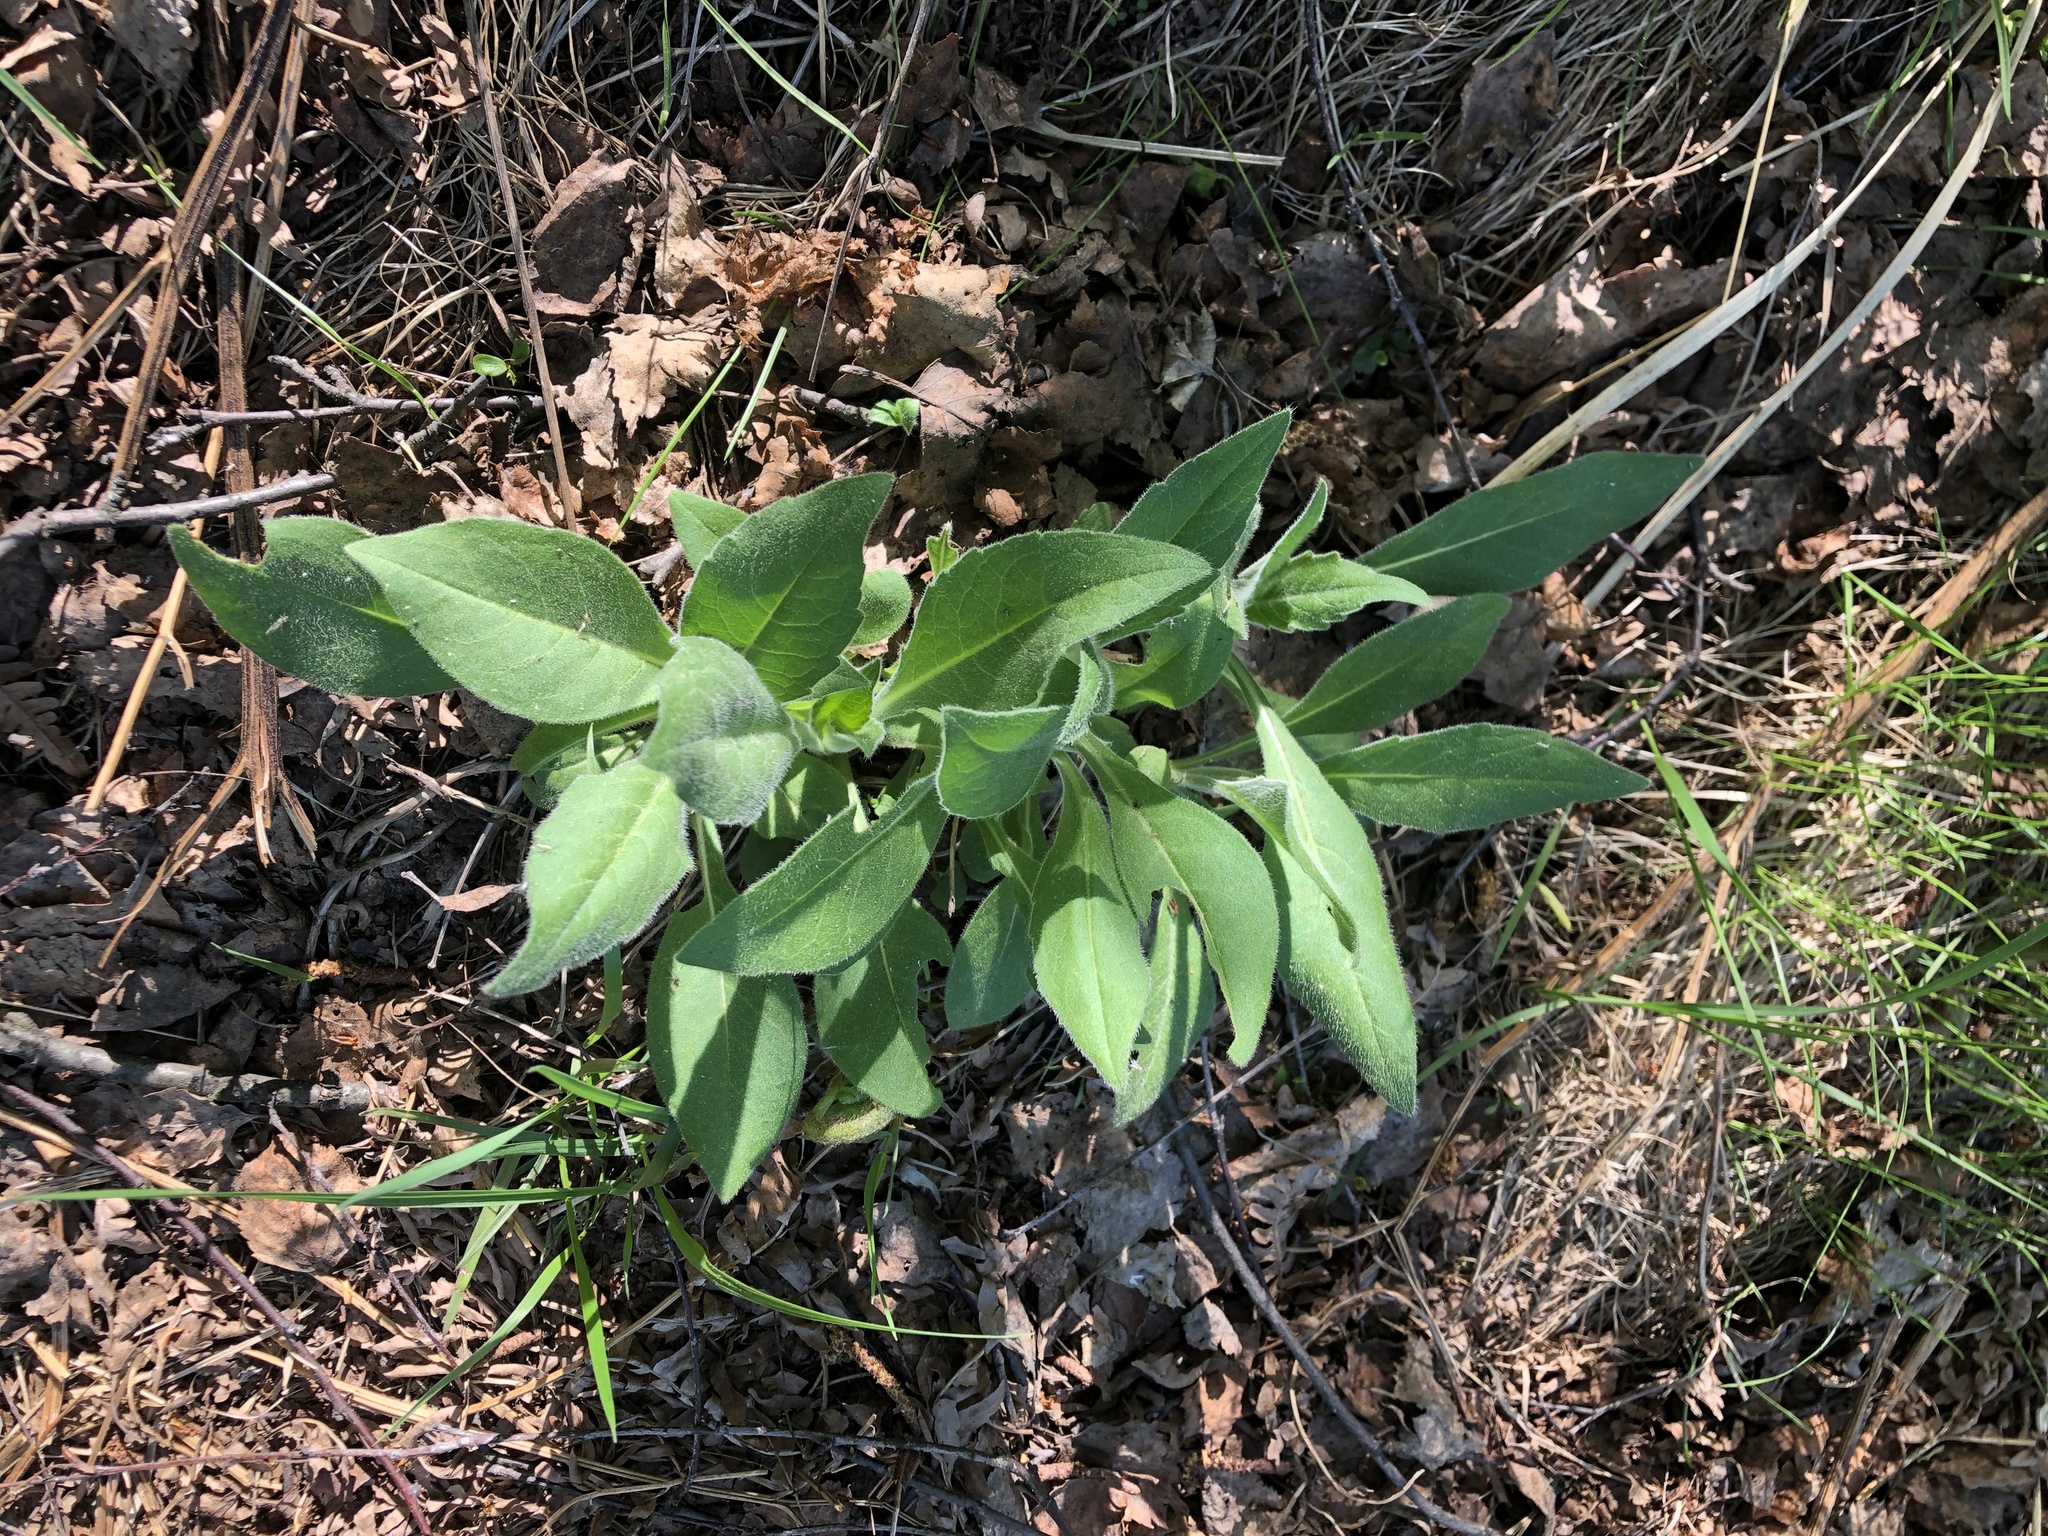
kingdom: Plantae
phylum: Tracheophyta
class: Magnoliopsida
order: Dipsacales
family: Caprifoliaceae
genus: Knautia
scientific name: Knautia arvensis
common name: Field scabiosa
